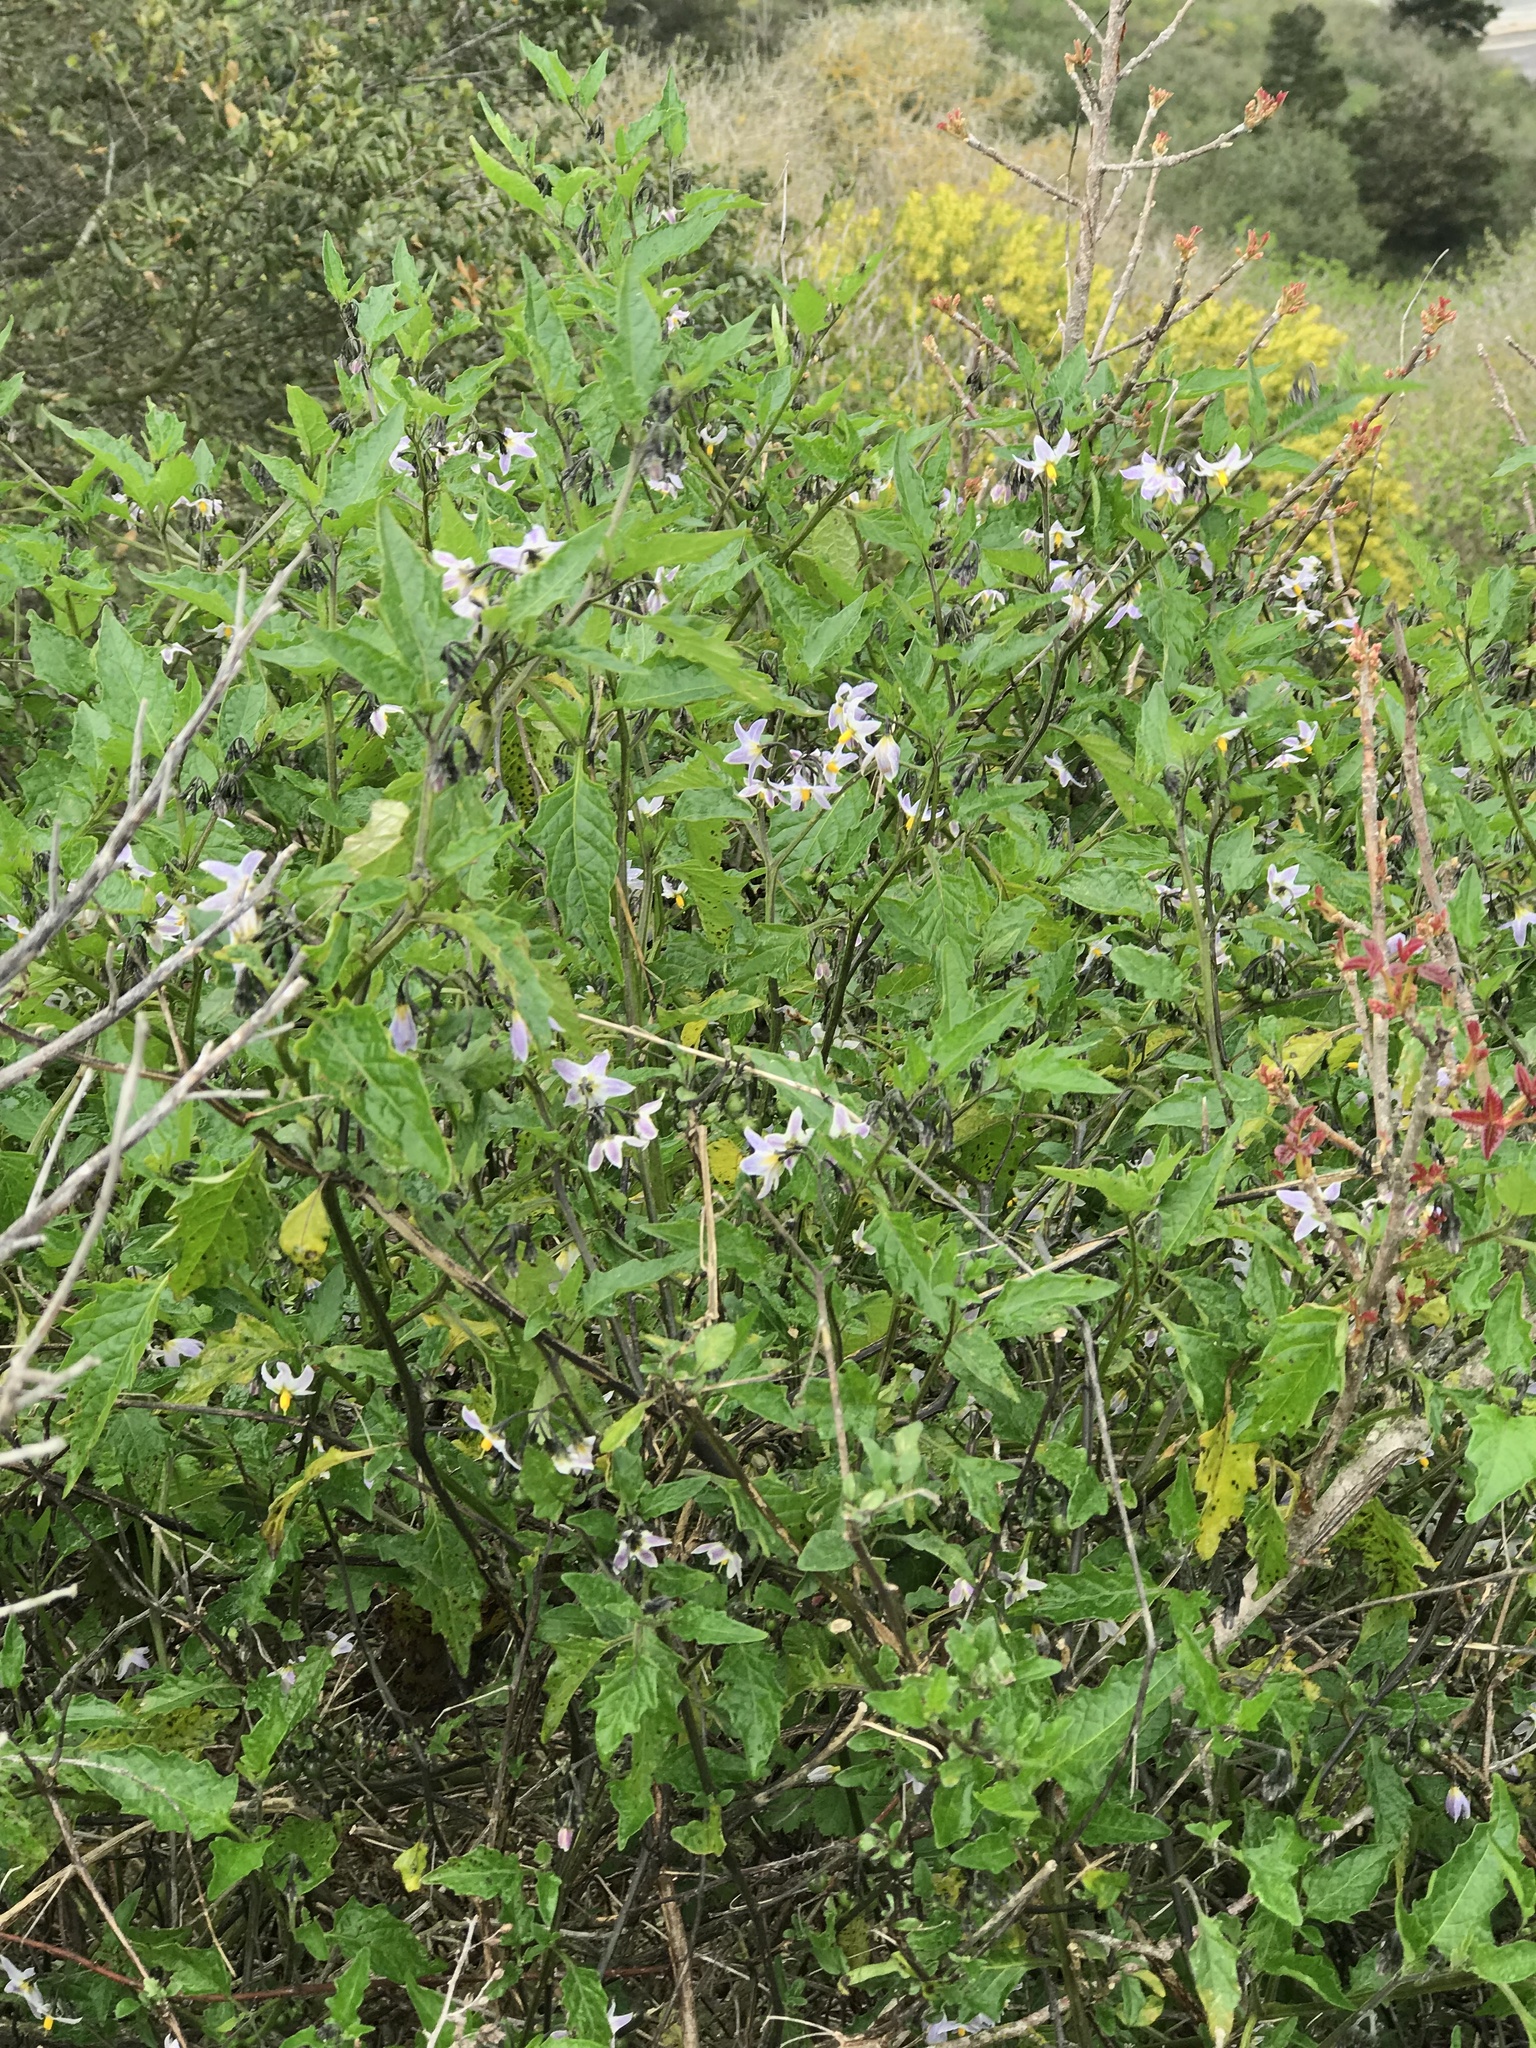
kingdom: Plantae
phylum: Tracheophyta
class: Magnoliopsida
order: Solanales
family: Solanaceae
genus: Solanum
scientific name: Solanum furcatum
